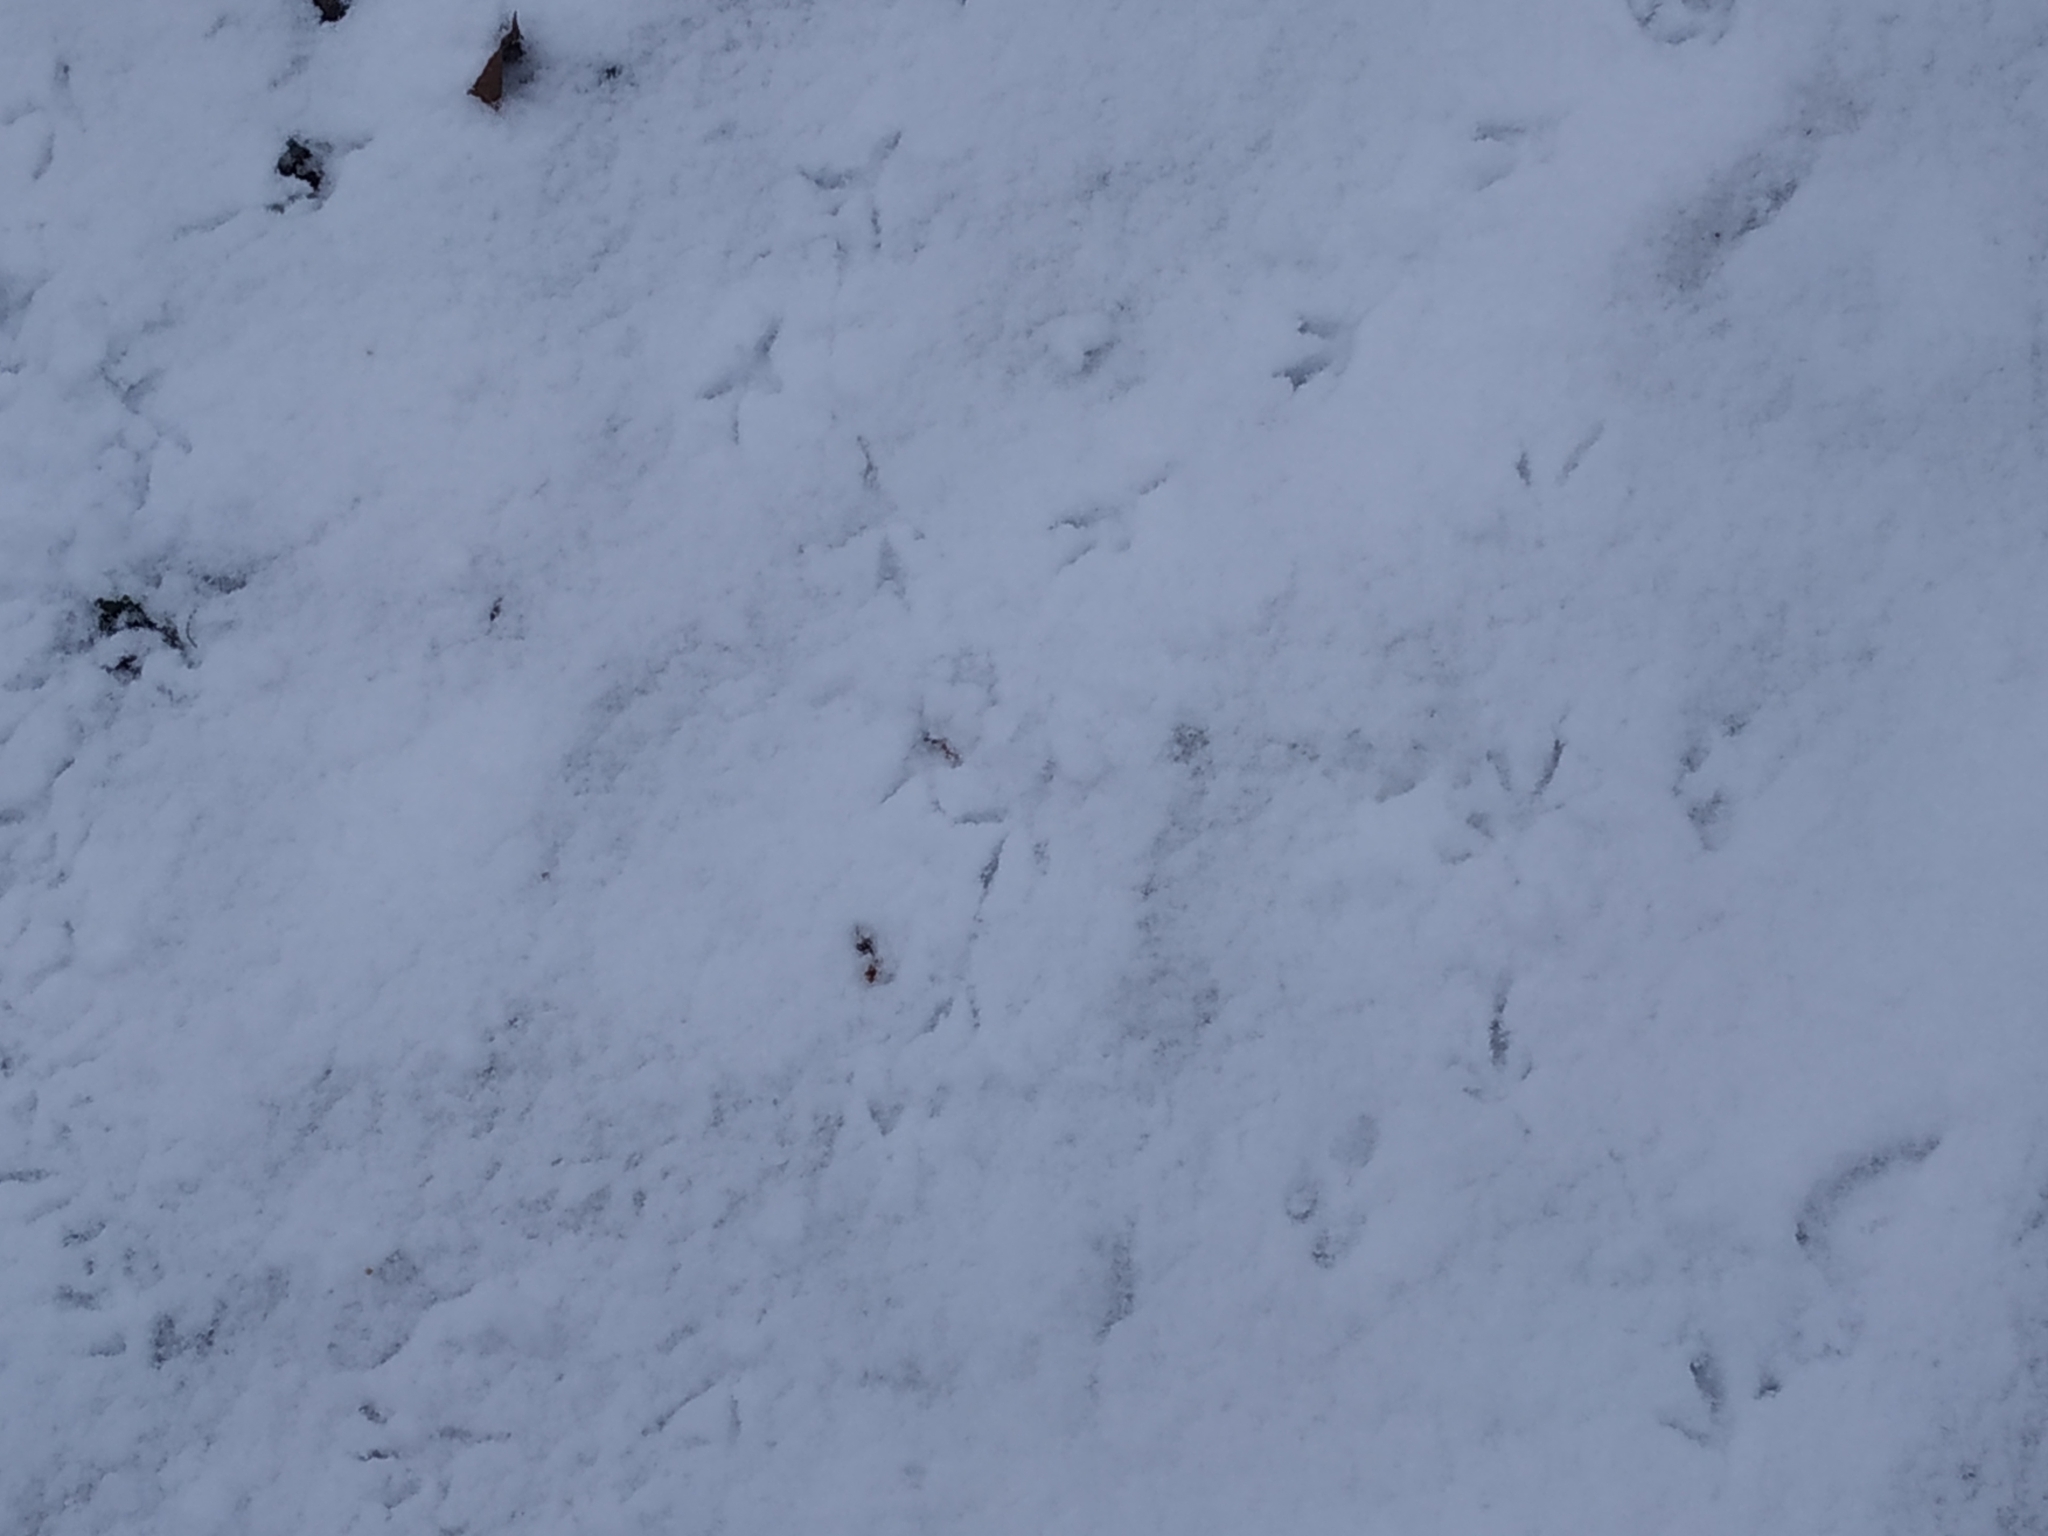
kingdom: Animalia
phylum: Chordata
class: Aves
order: Columbiformes
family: Columbidae
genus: Columba
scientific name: Columba livia
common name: Rock pigeon
